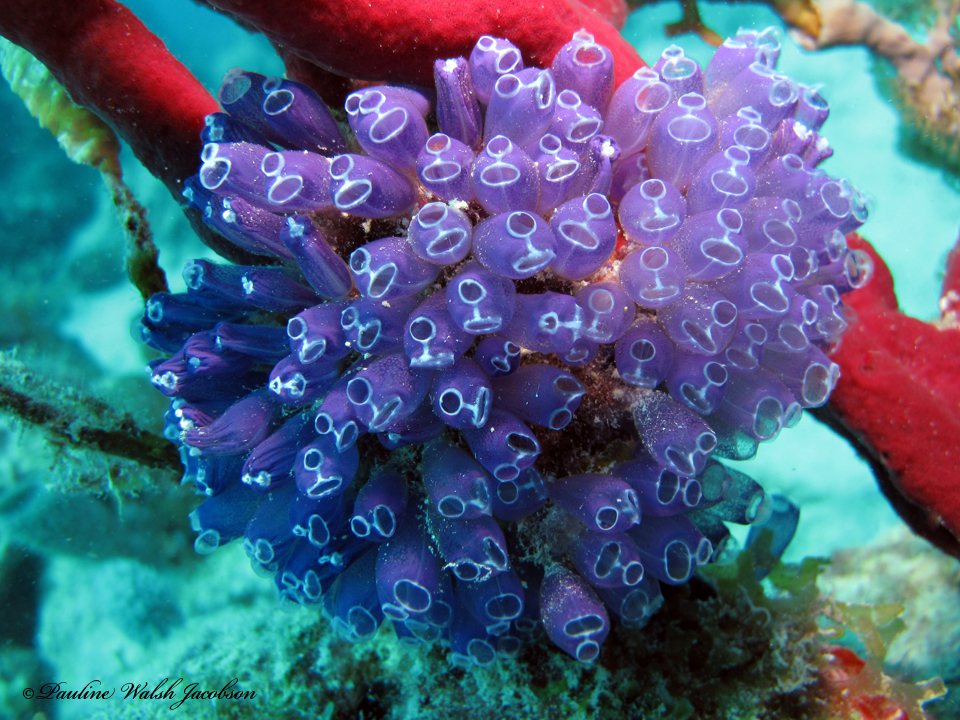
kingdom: Animalia
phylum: Chordata
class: Ascidiacea
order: Aplousobranchia
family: Clavelinidae
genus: Clavelina
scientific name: Clavelina puertosecensis
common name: Blue bell tunicate
